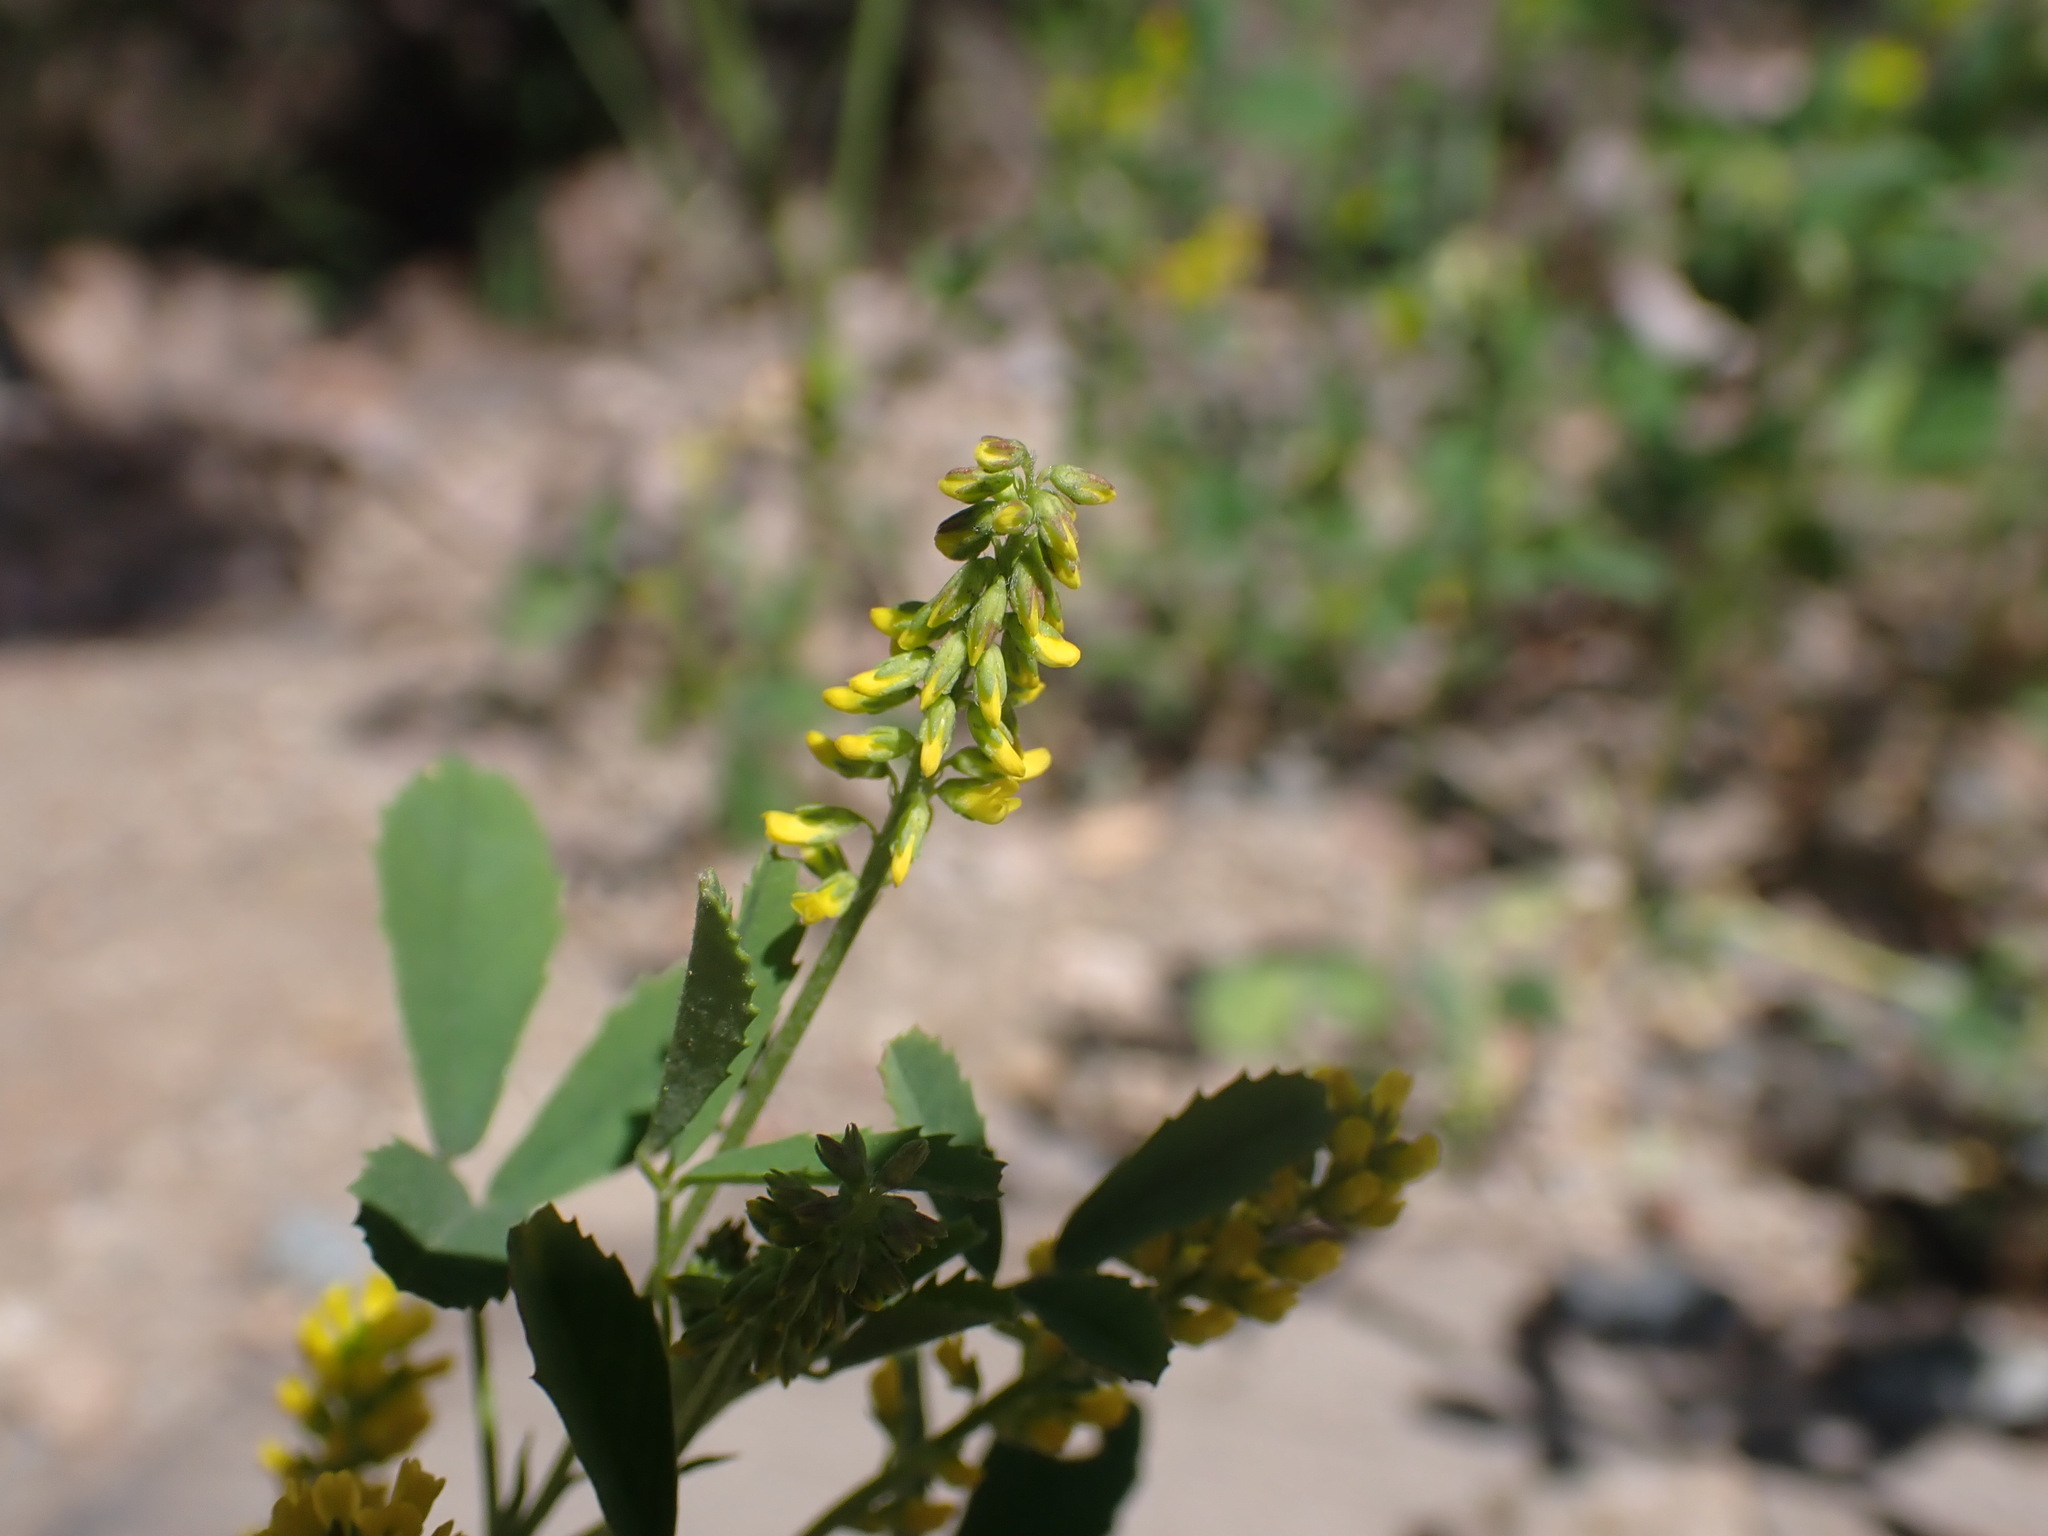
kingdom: Plantae
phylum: Tracheophyta
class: Magnoliopsida
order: Fabales
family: Fabaceae
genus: Melilotus
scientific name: Melilotus indicus
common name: Small melilot
